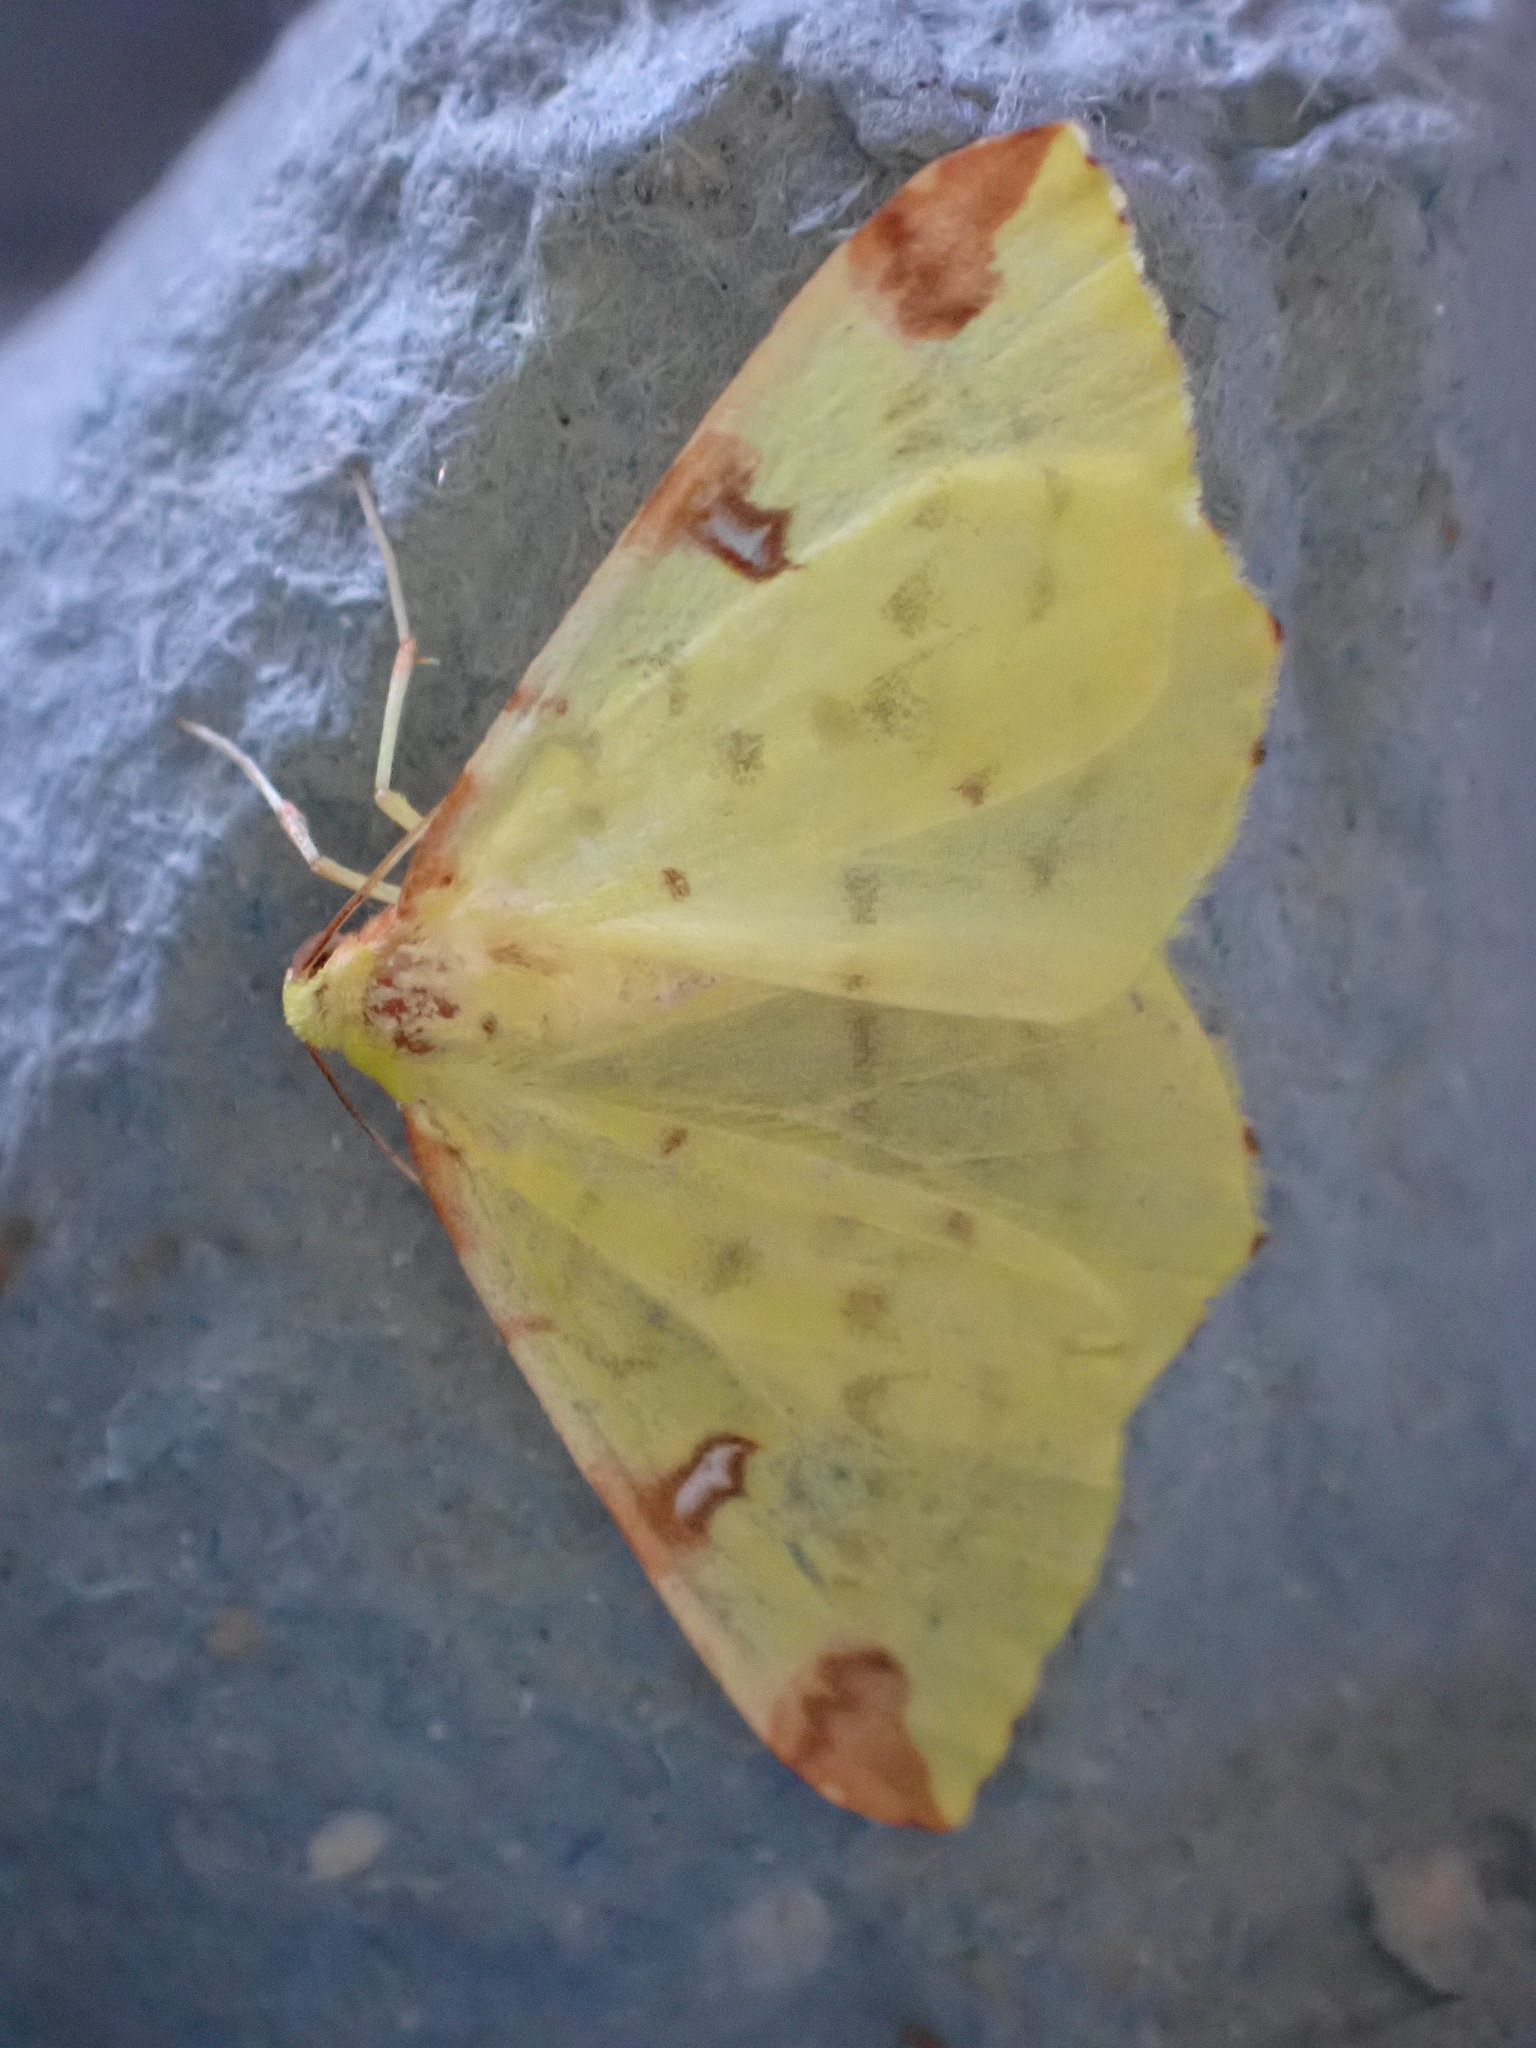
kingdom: Animalia
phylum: Arthropoda
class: Insecta
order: Lepidoptera
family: Geometridae
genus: Opisthograptis
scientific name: Opisthograptis luteolata
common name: Brimstone moth
